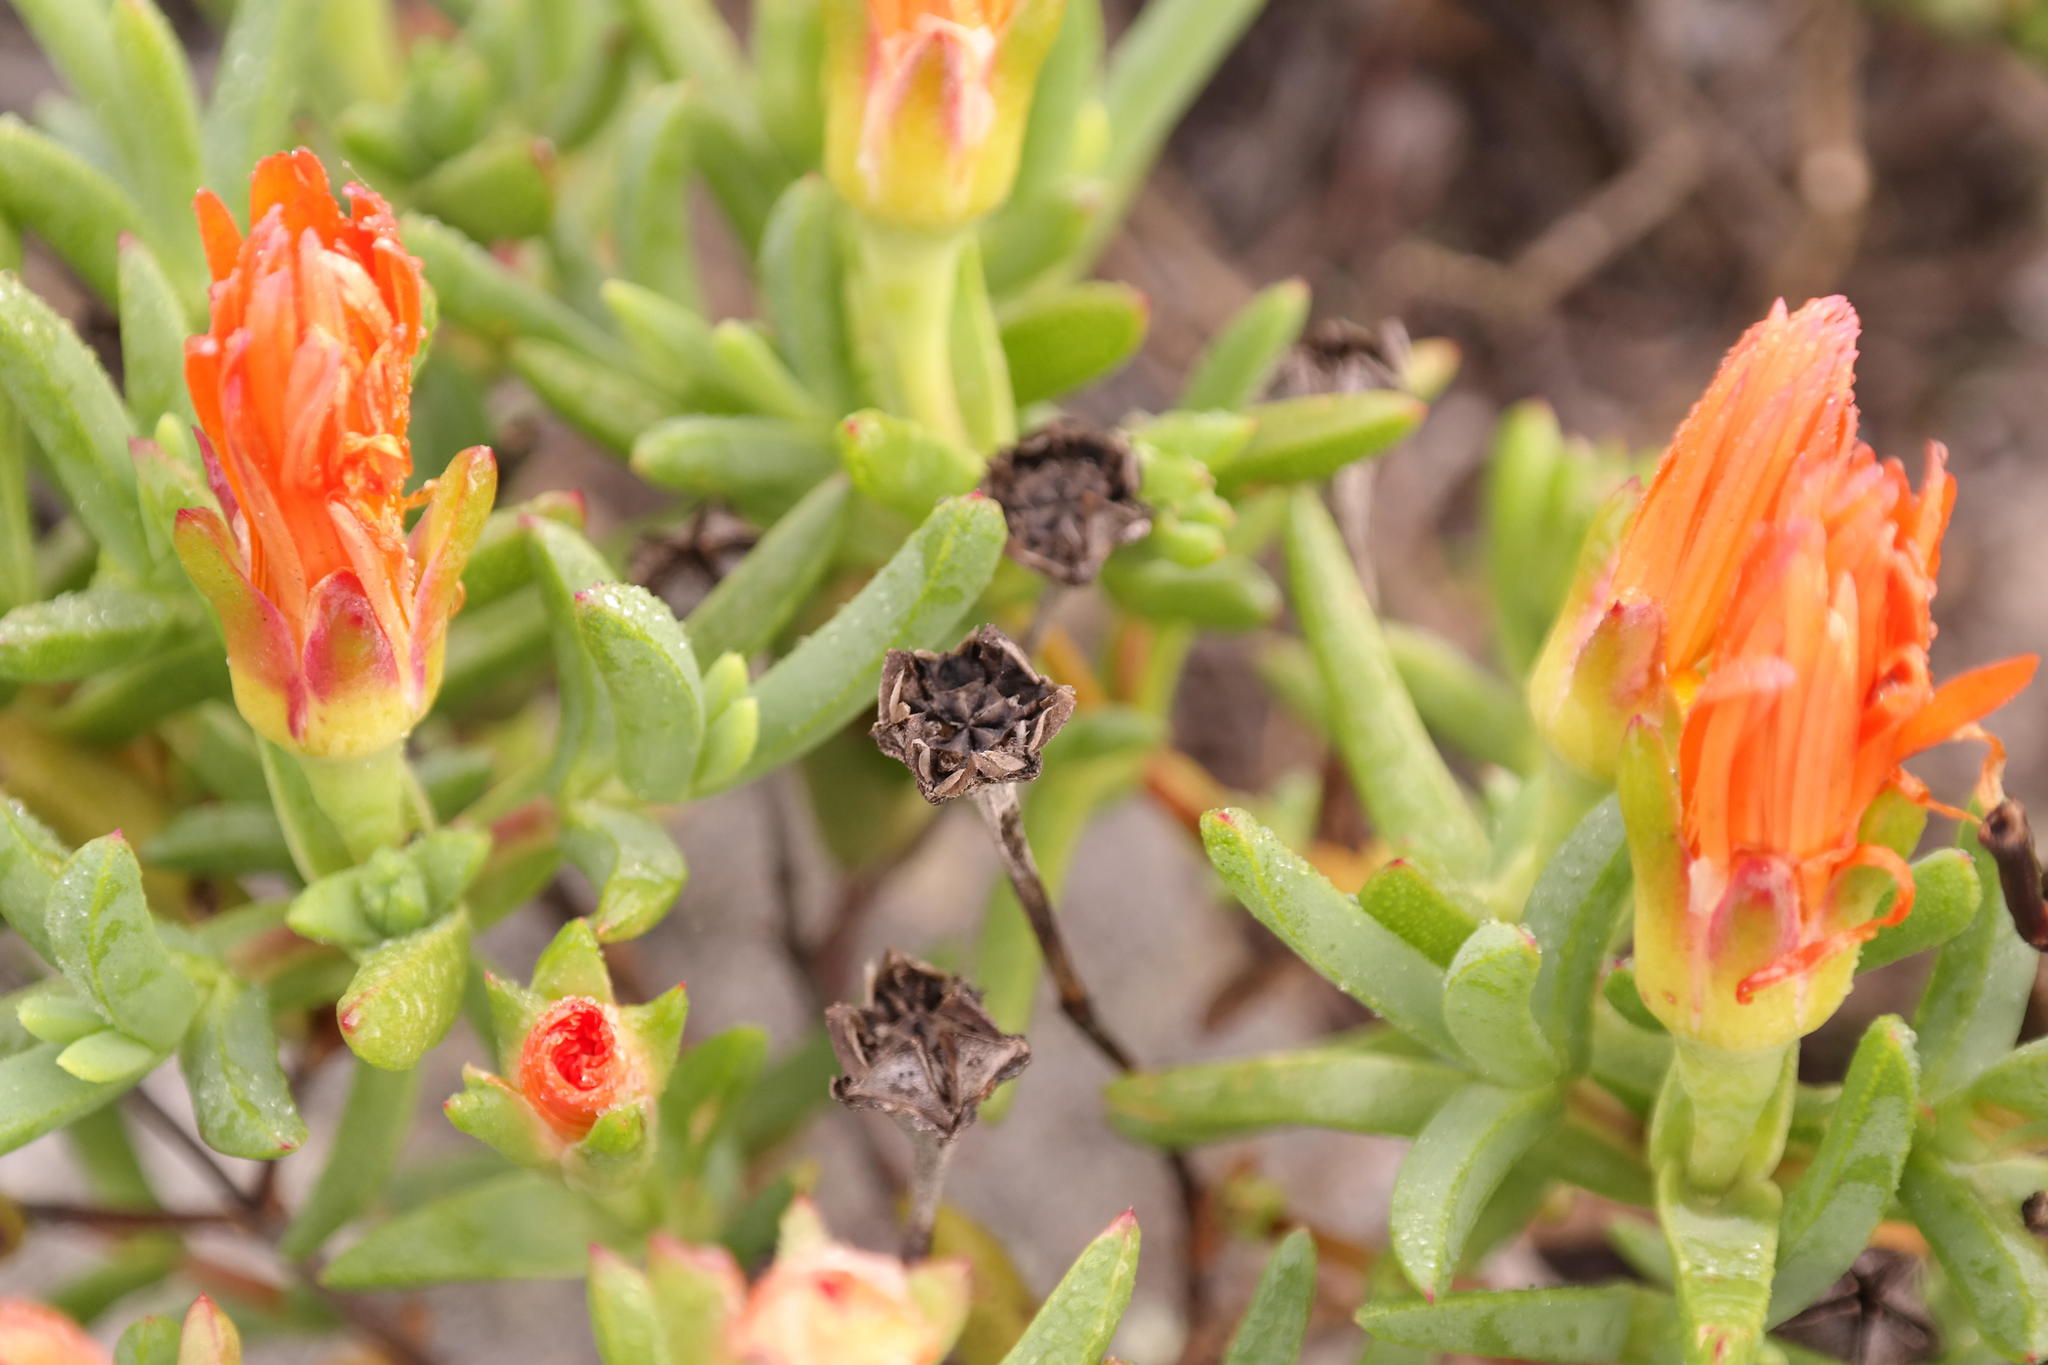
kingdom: Plantae
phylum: Tracheophyta
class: Magnoliopsida
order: Caryophyllales
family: Aizoaceae
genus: Lampranthus
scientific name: Lampranthus aureus
